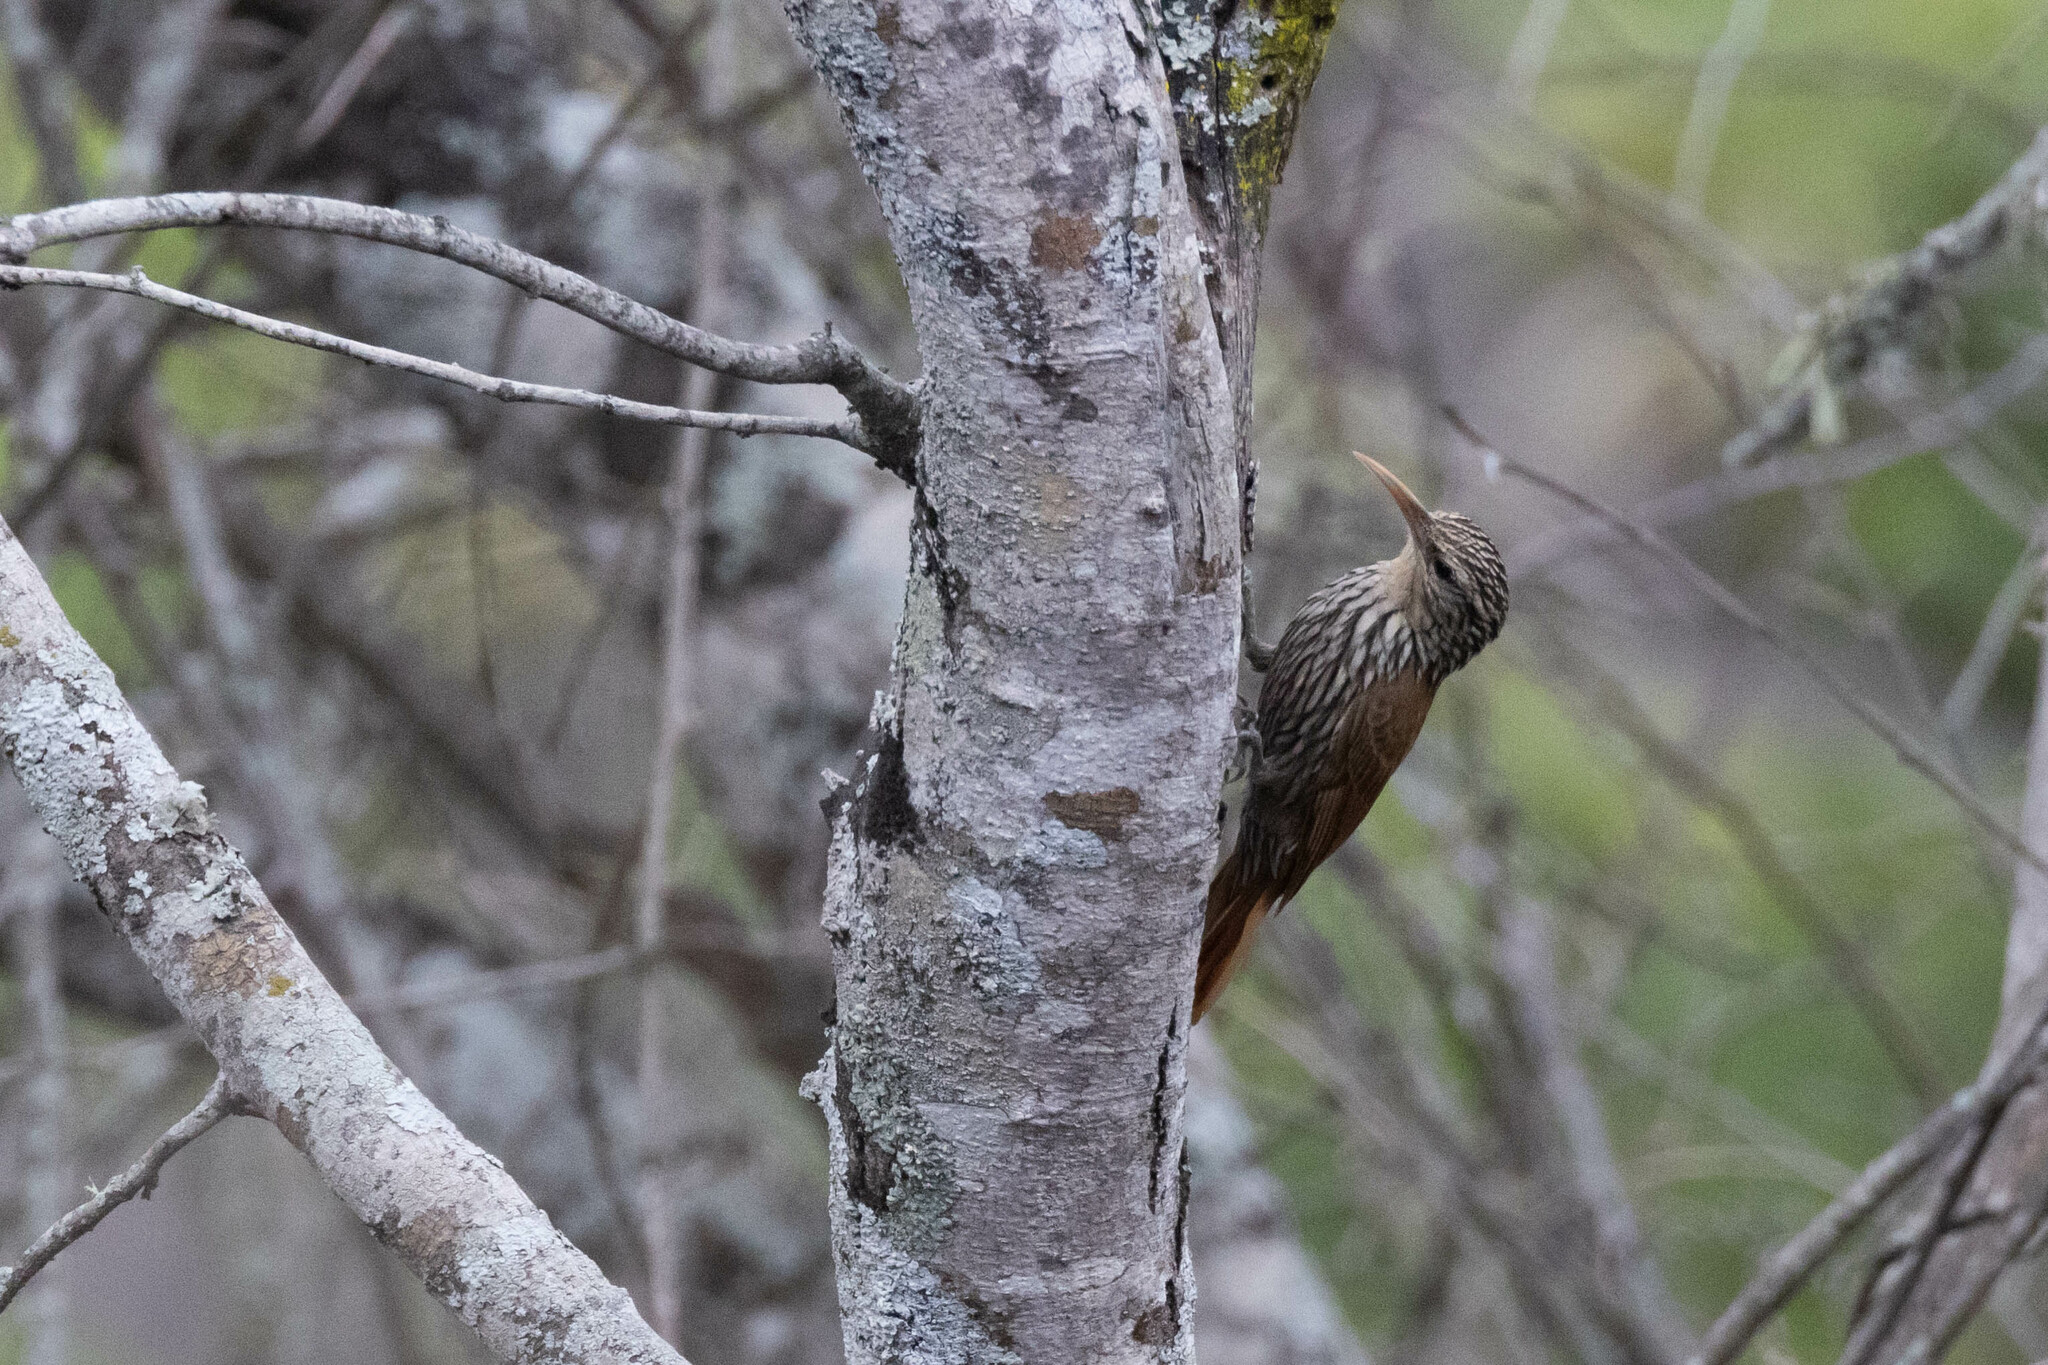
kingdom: Animalia
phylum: Chordata
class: Aves
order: Passeriformes
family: Furnariidae
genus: Lepidocolaptes
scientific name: Lepidocolaptes souleyetii
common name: Streak-headed woodcreeper
